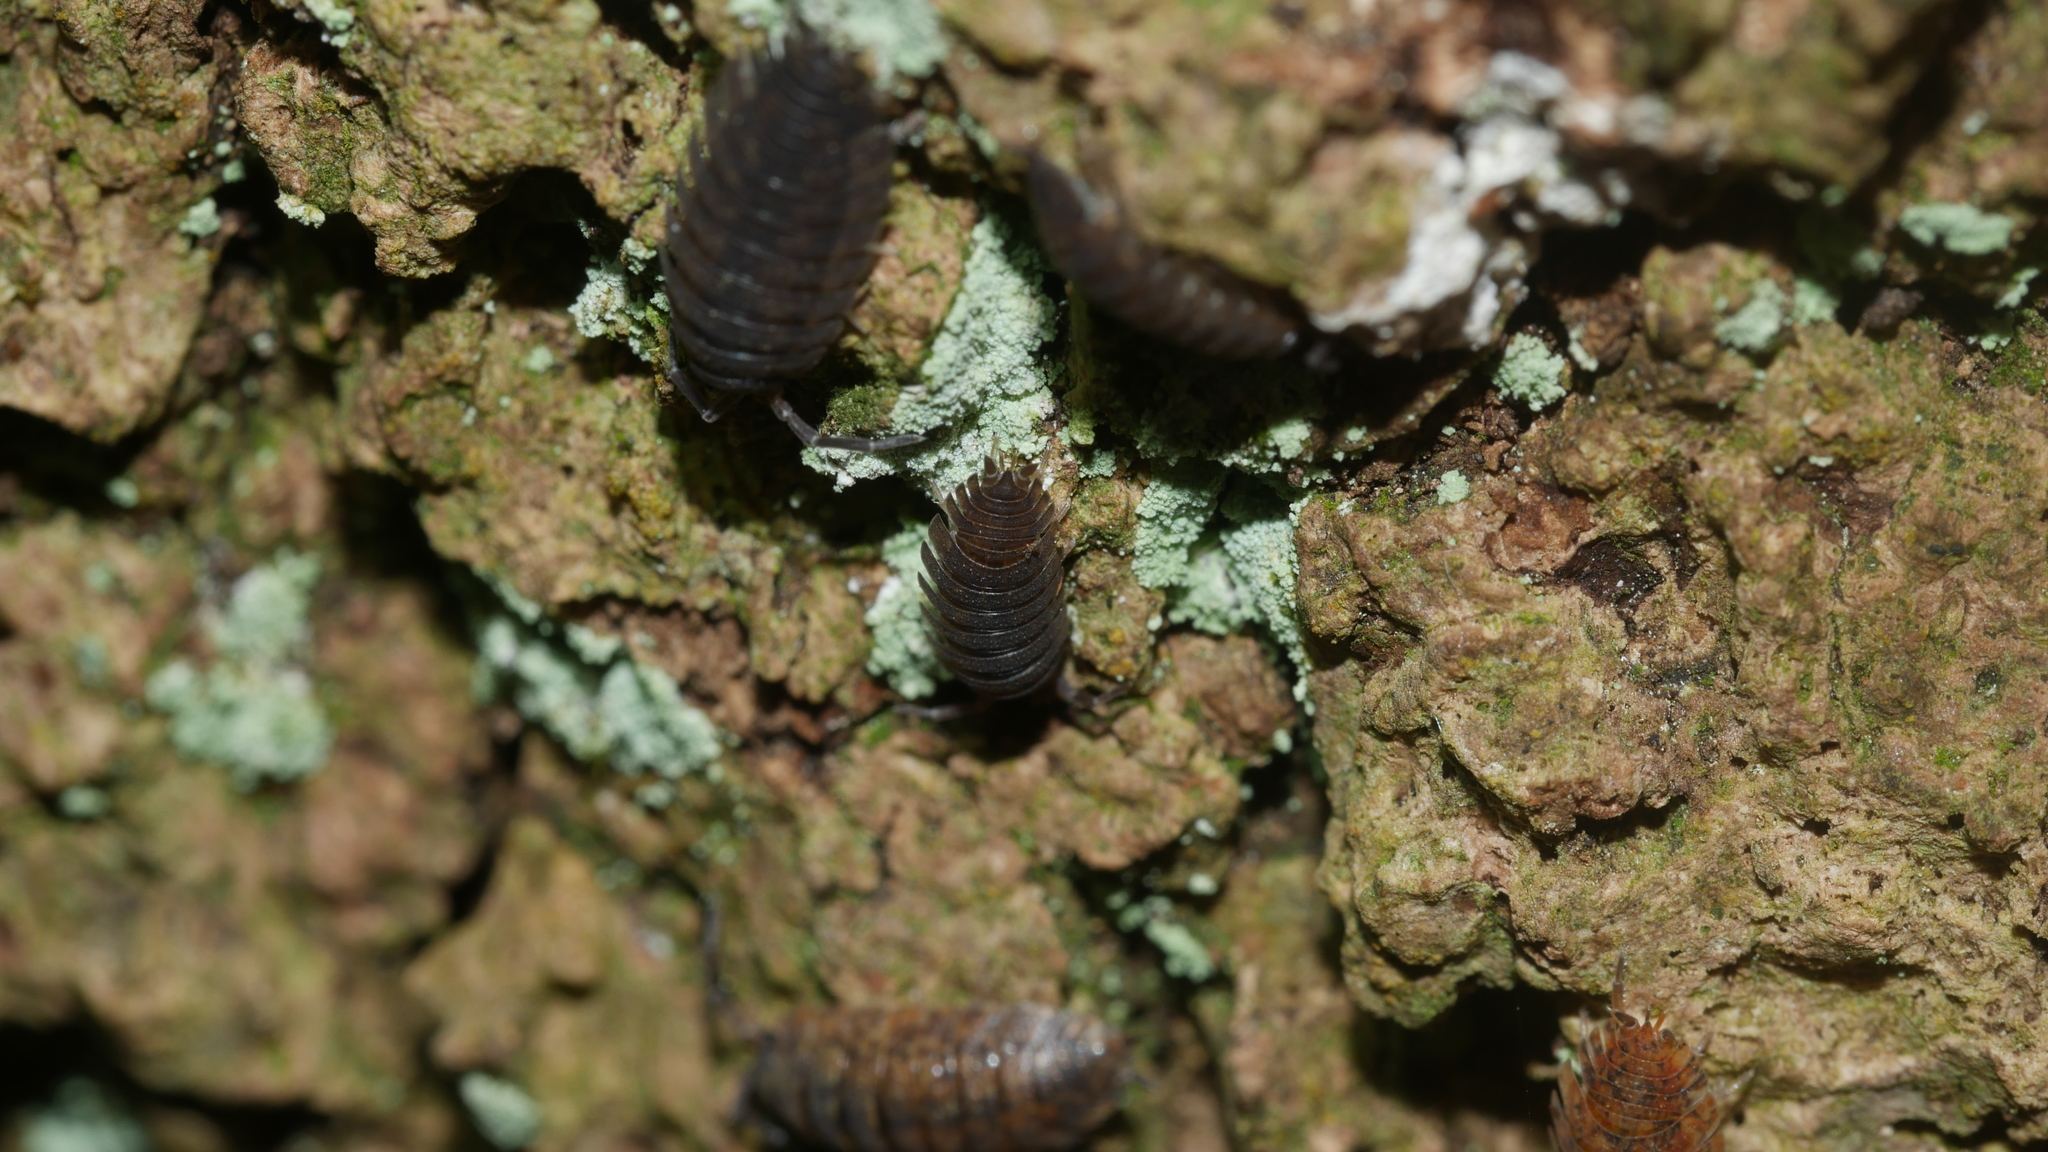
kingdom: Animalia
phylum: Arthropoda
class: Malacostraca
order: Isopoda
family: Porcellionidae
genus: Porcellio
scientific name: Porcellio scaber
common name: Common rough woodlouse
